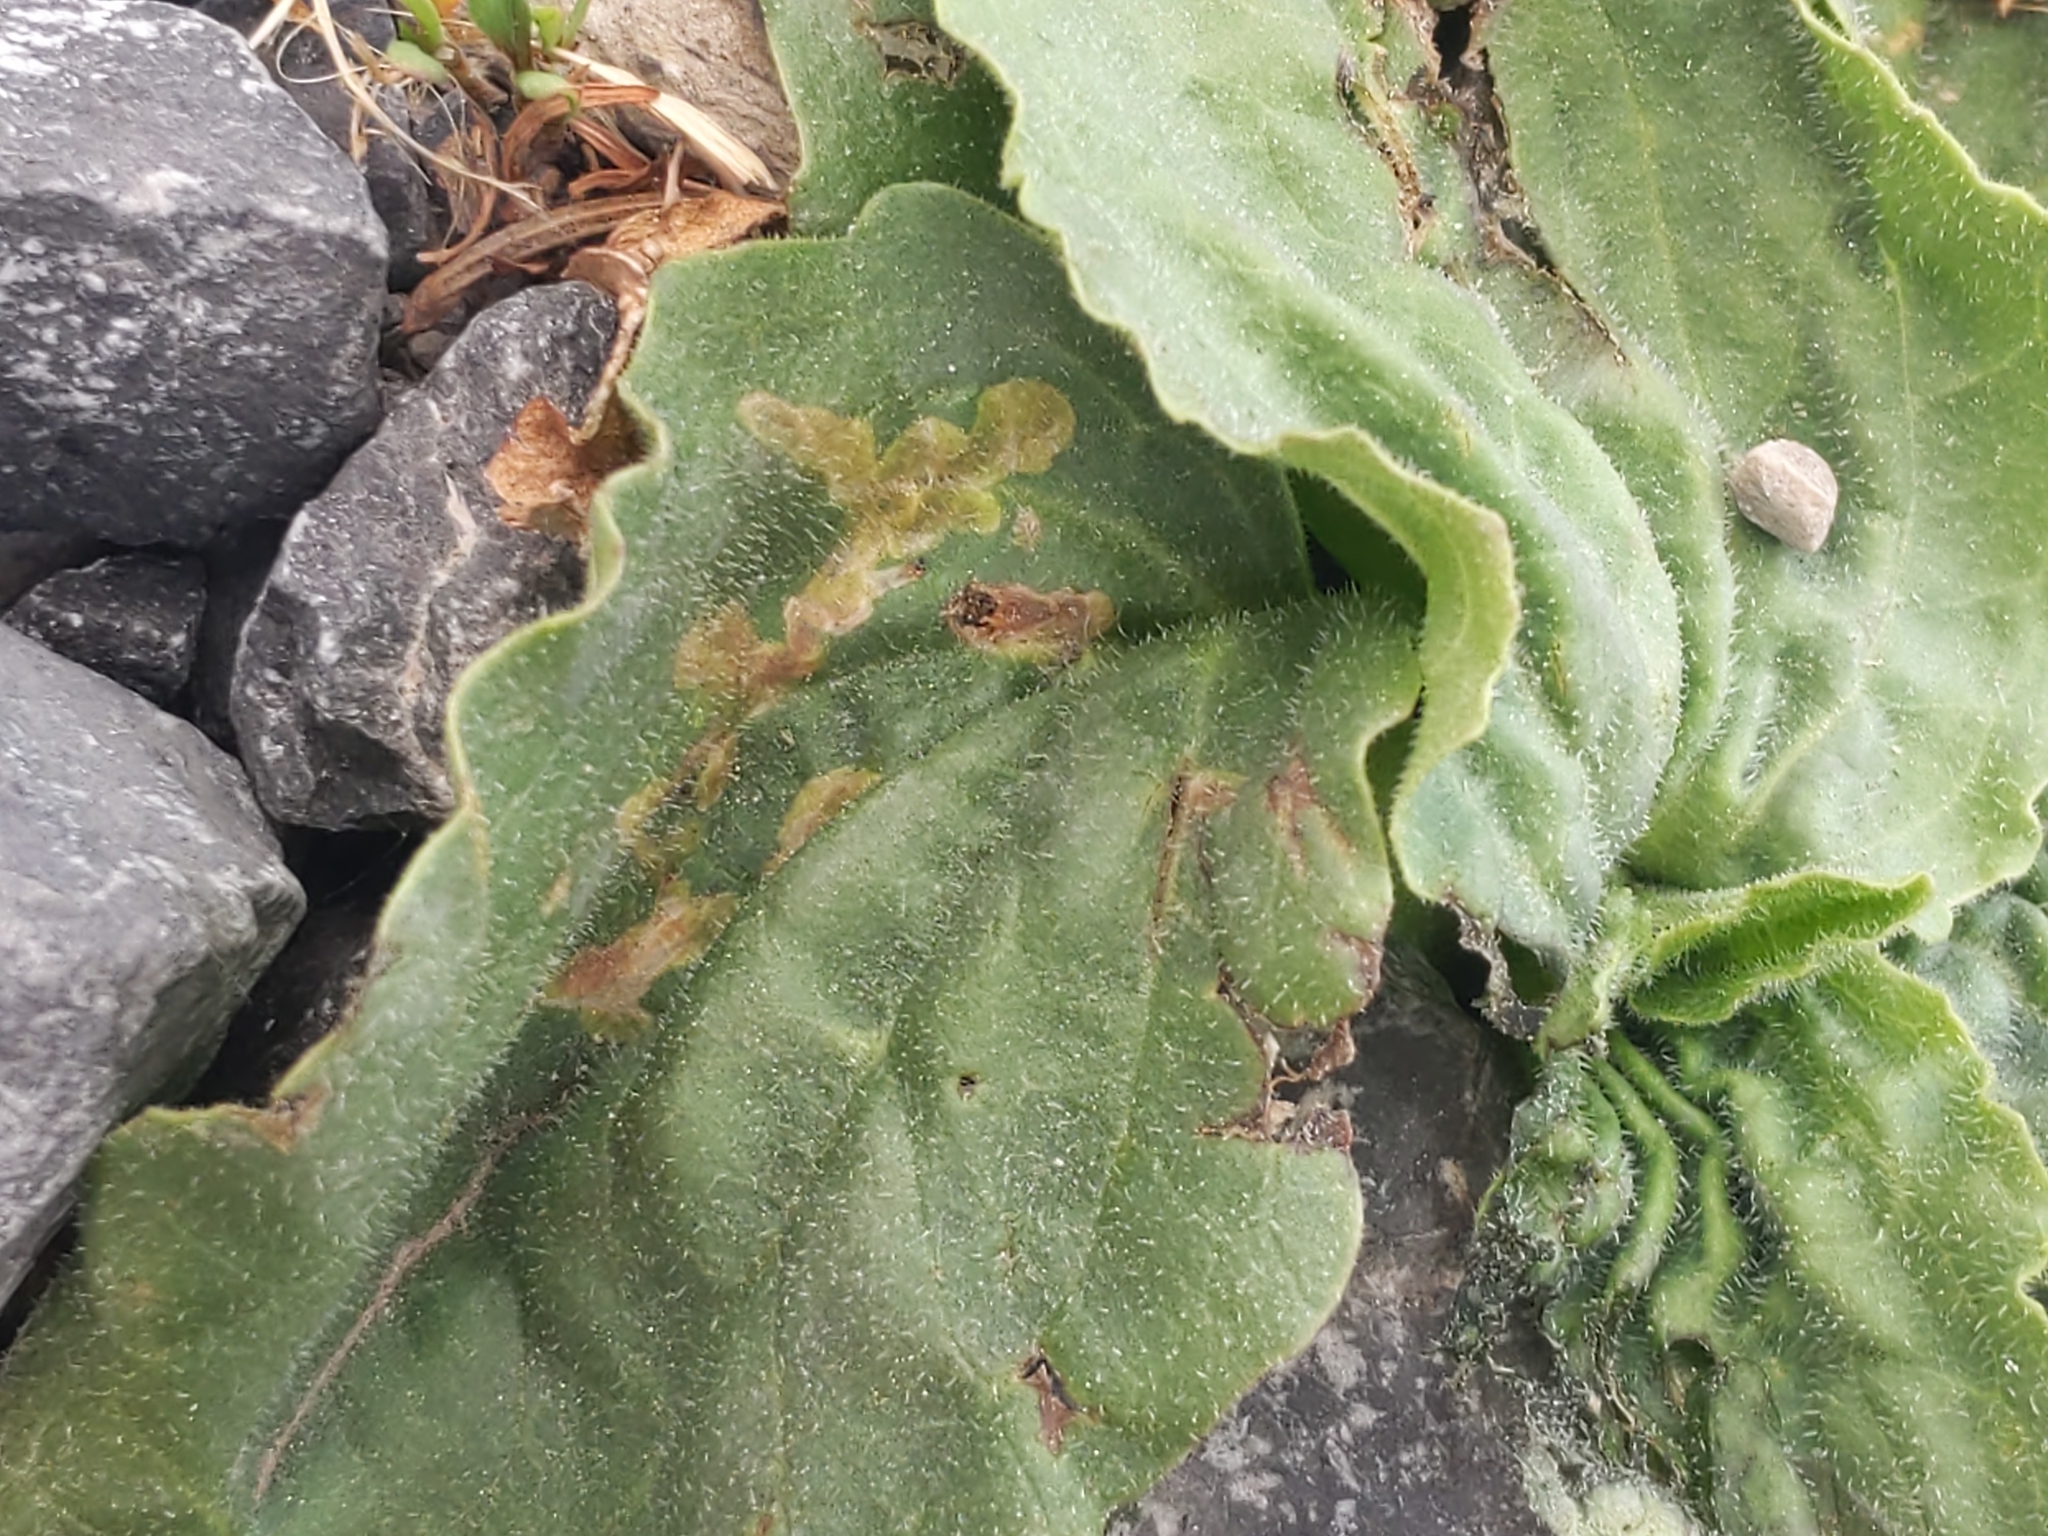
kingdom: Animalia
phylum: Arthropoda
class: Insecta
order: Coleoptera
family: Chrysomelidae
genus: Dibolia
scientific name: Dibolia borealis
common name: Northern plantain flea beetle
